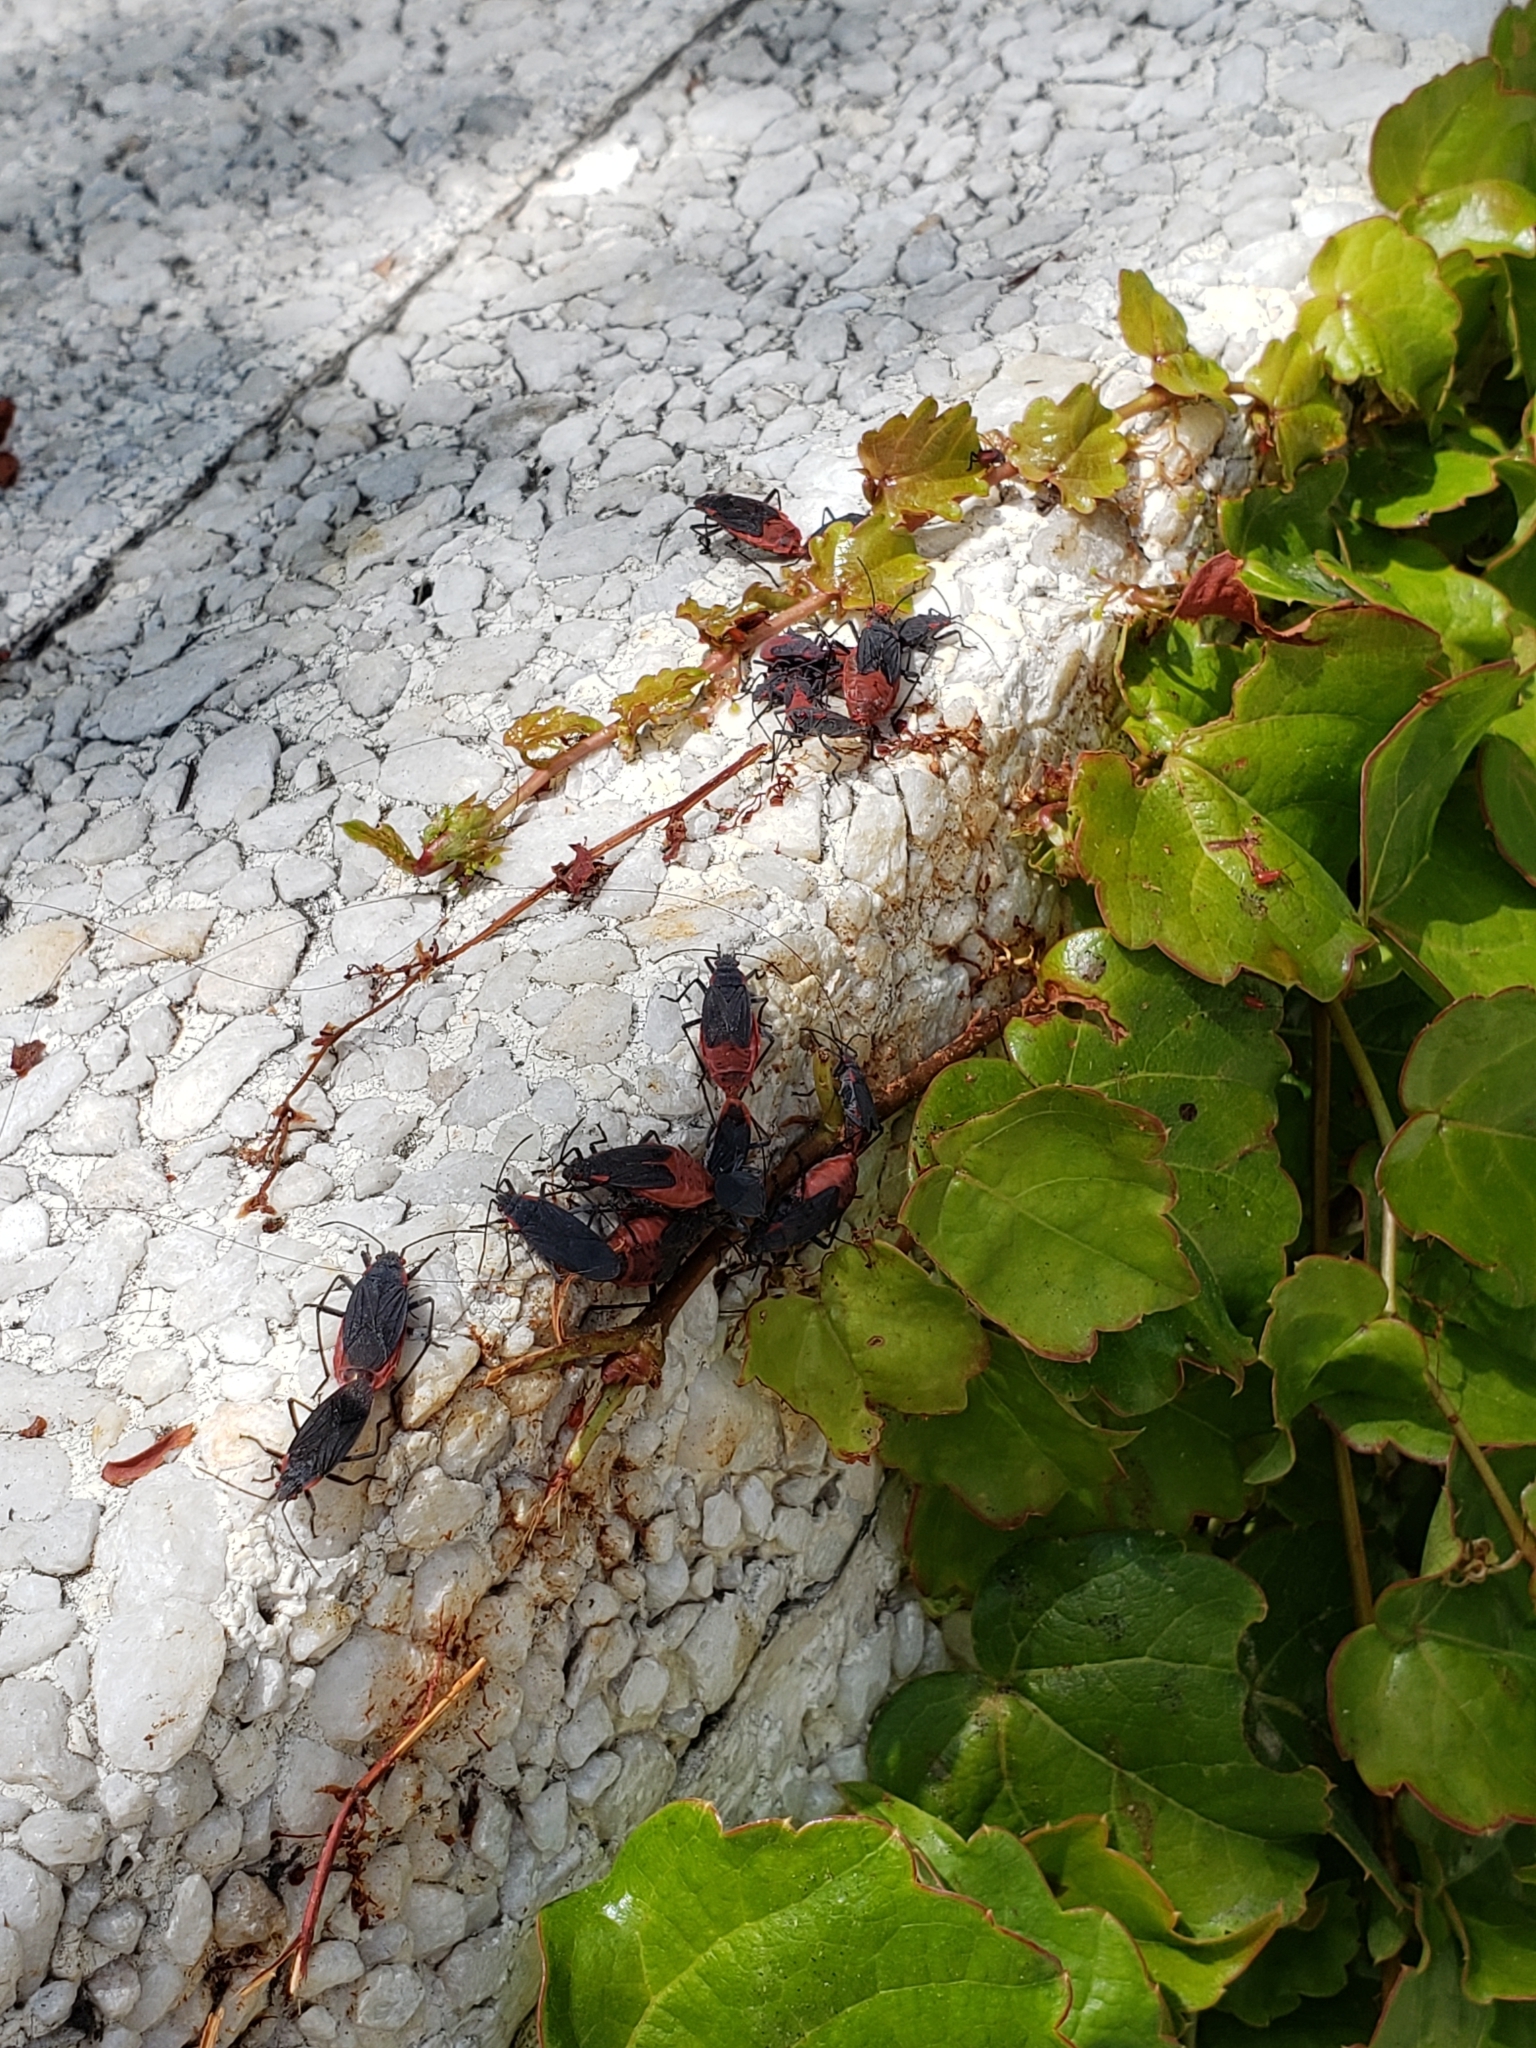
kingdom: Animalia
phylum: Arthropoda
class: Insecta
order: Hemiptera
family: Rhopalidae
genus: Jadera
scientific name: Jadera haematoloma
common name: Red-shouldered bug
